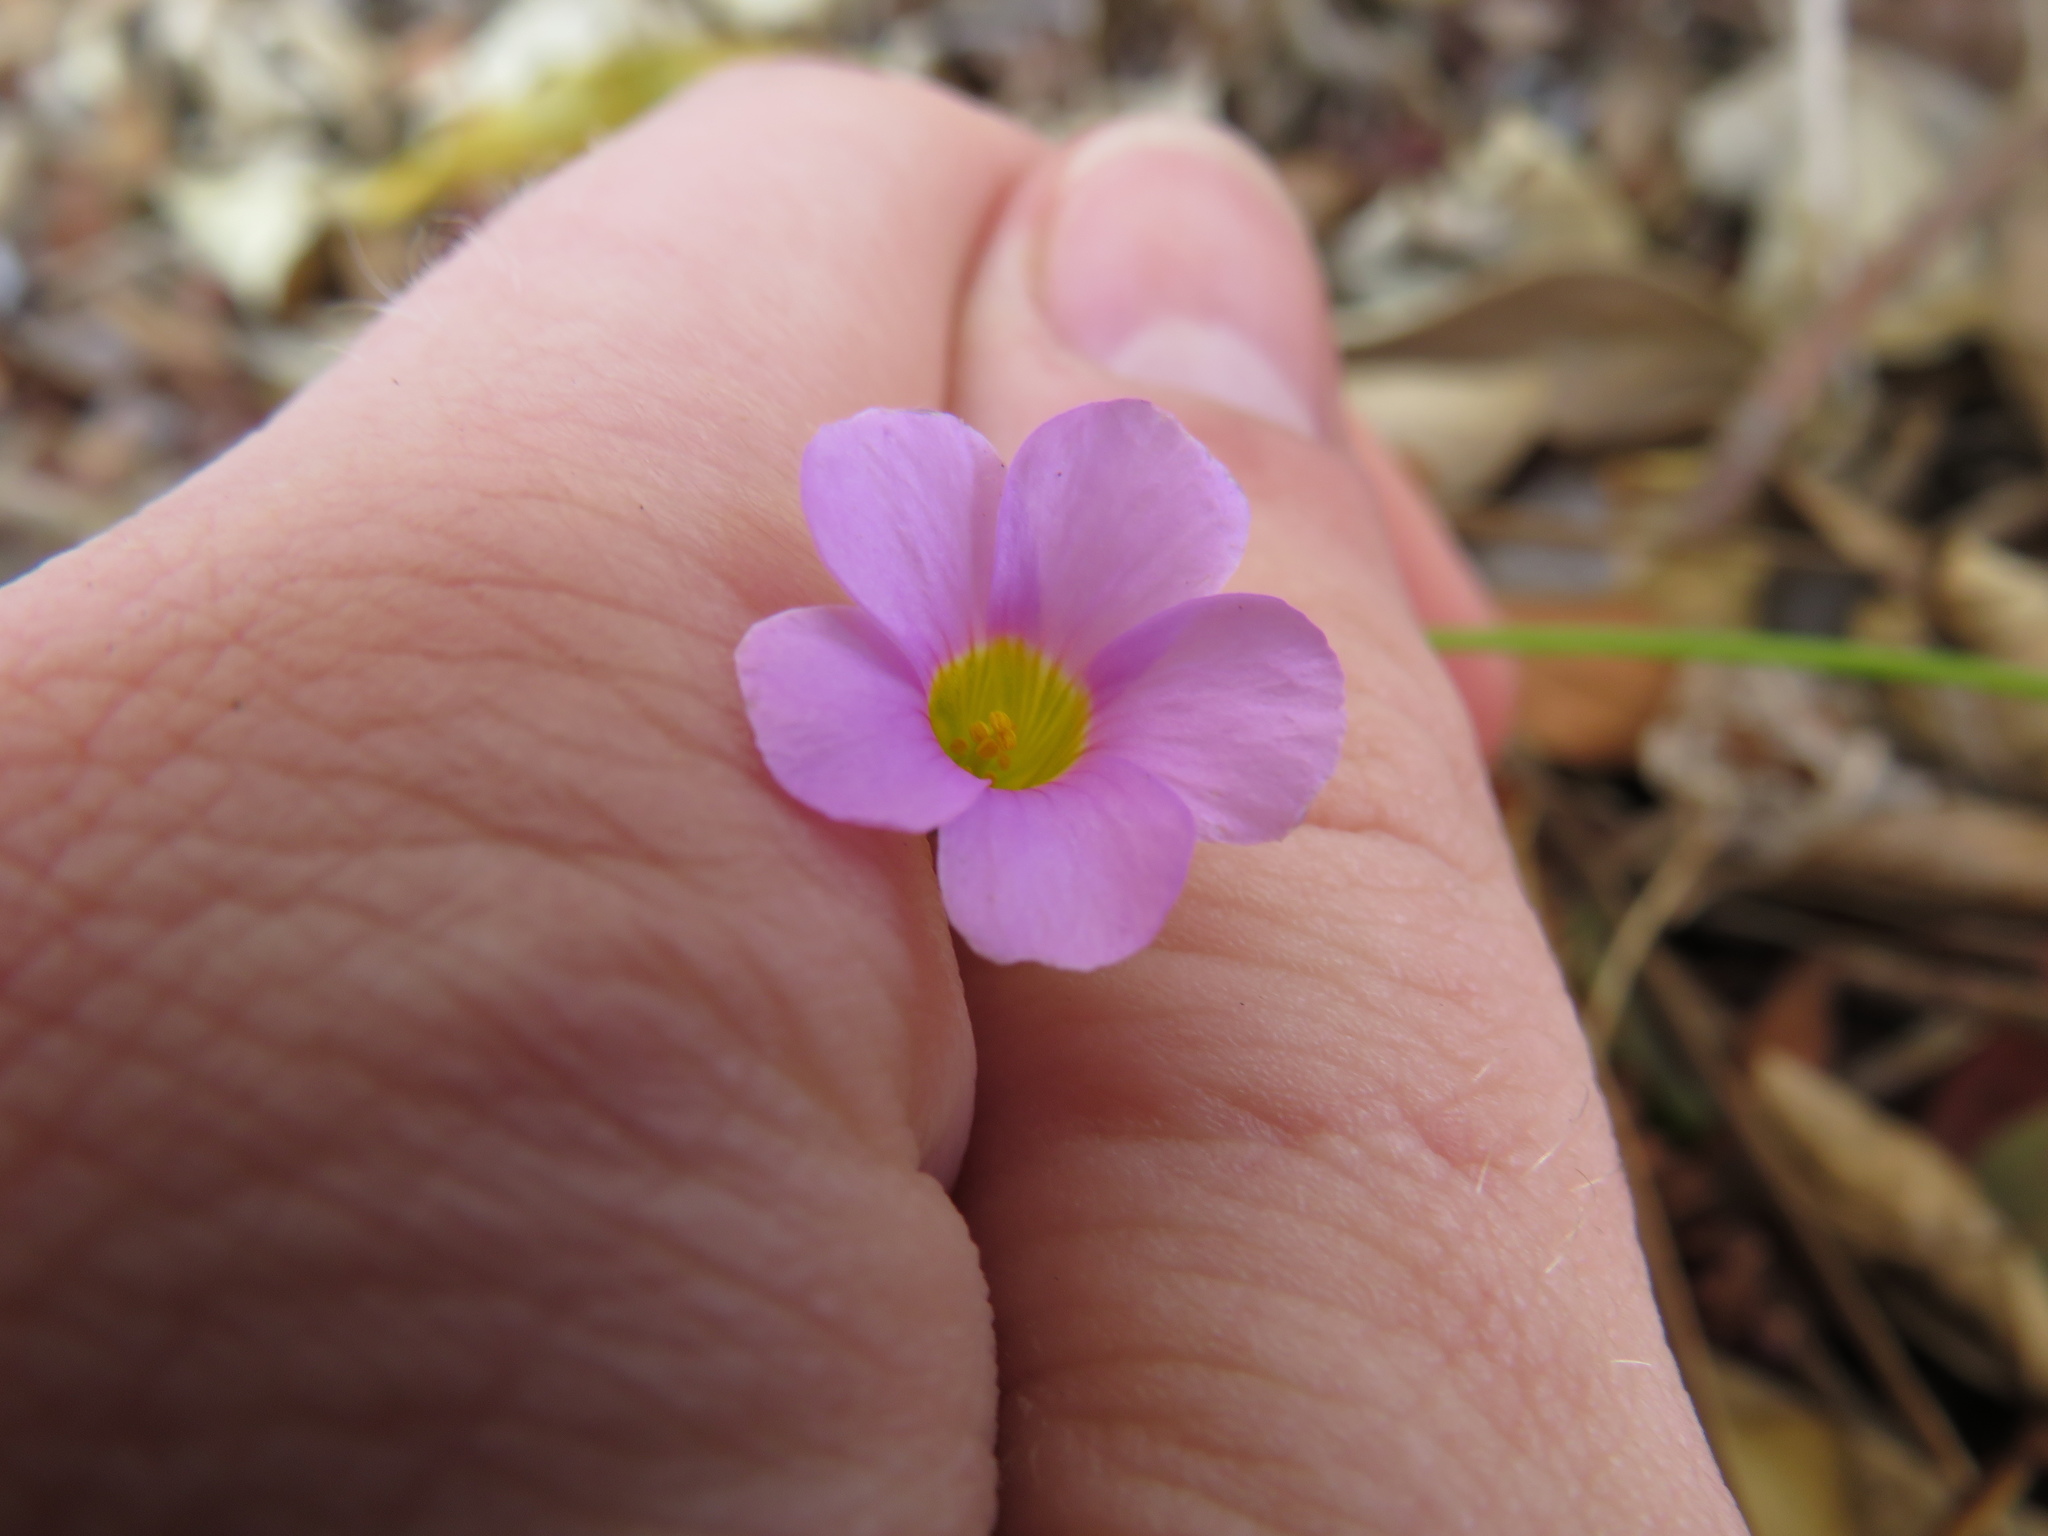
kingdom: Plantae
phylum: Tracheophyta
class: Magnoliopsida
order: Oxalidales
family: Oxalidaceae
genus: Oxalis
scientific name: Oxalis caprina
